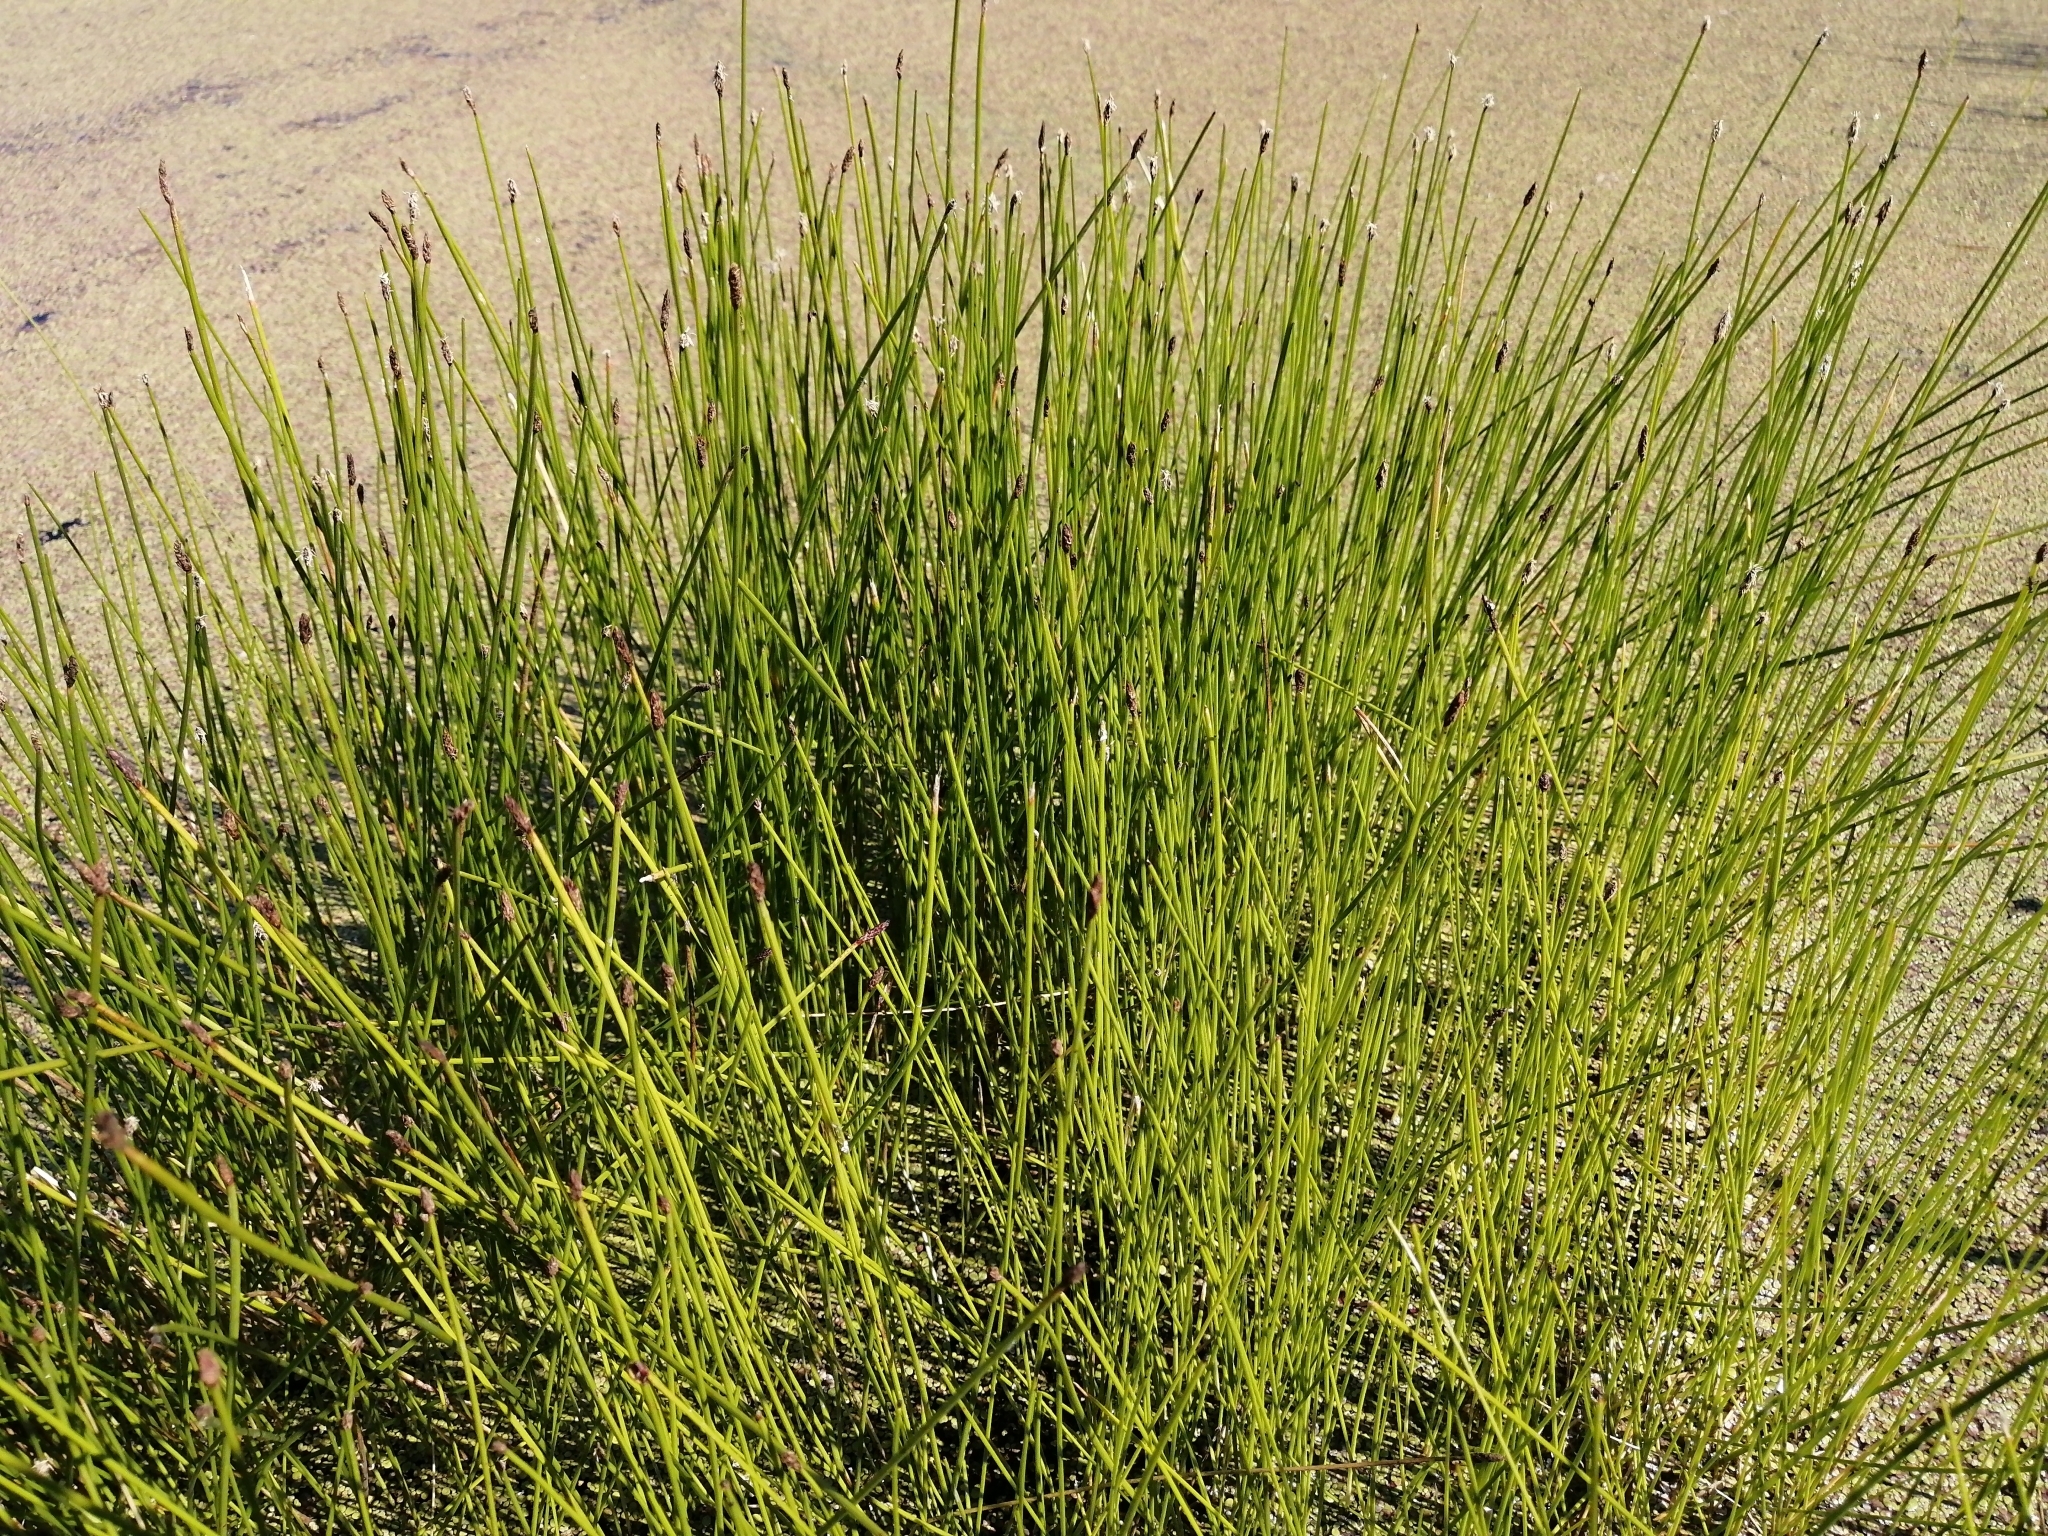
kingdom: Plantae
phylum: Tracheophyta
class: Liliopsida
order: Poales
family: Cyperaceae
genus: Eleocharis
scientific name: Eleocharis palustris
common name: Common spike-rush
